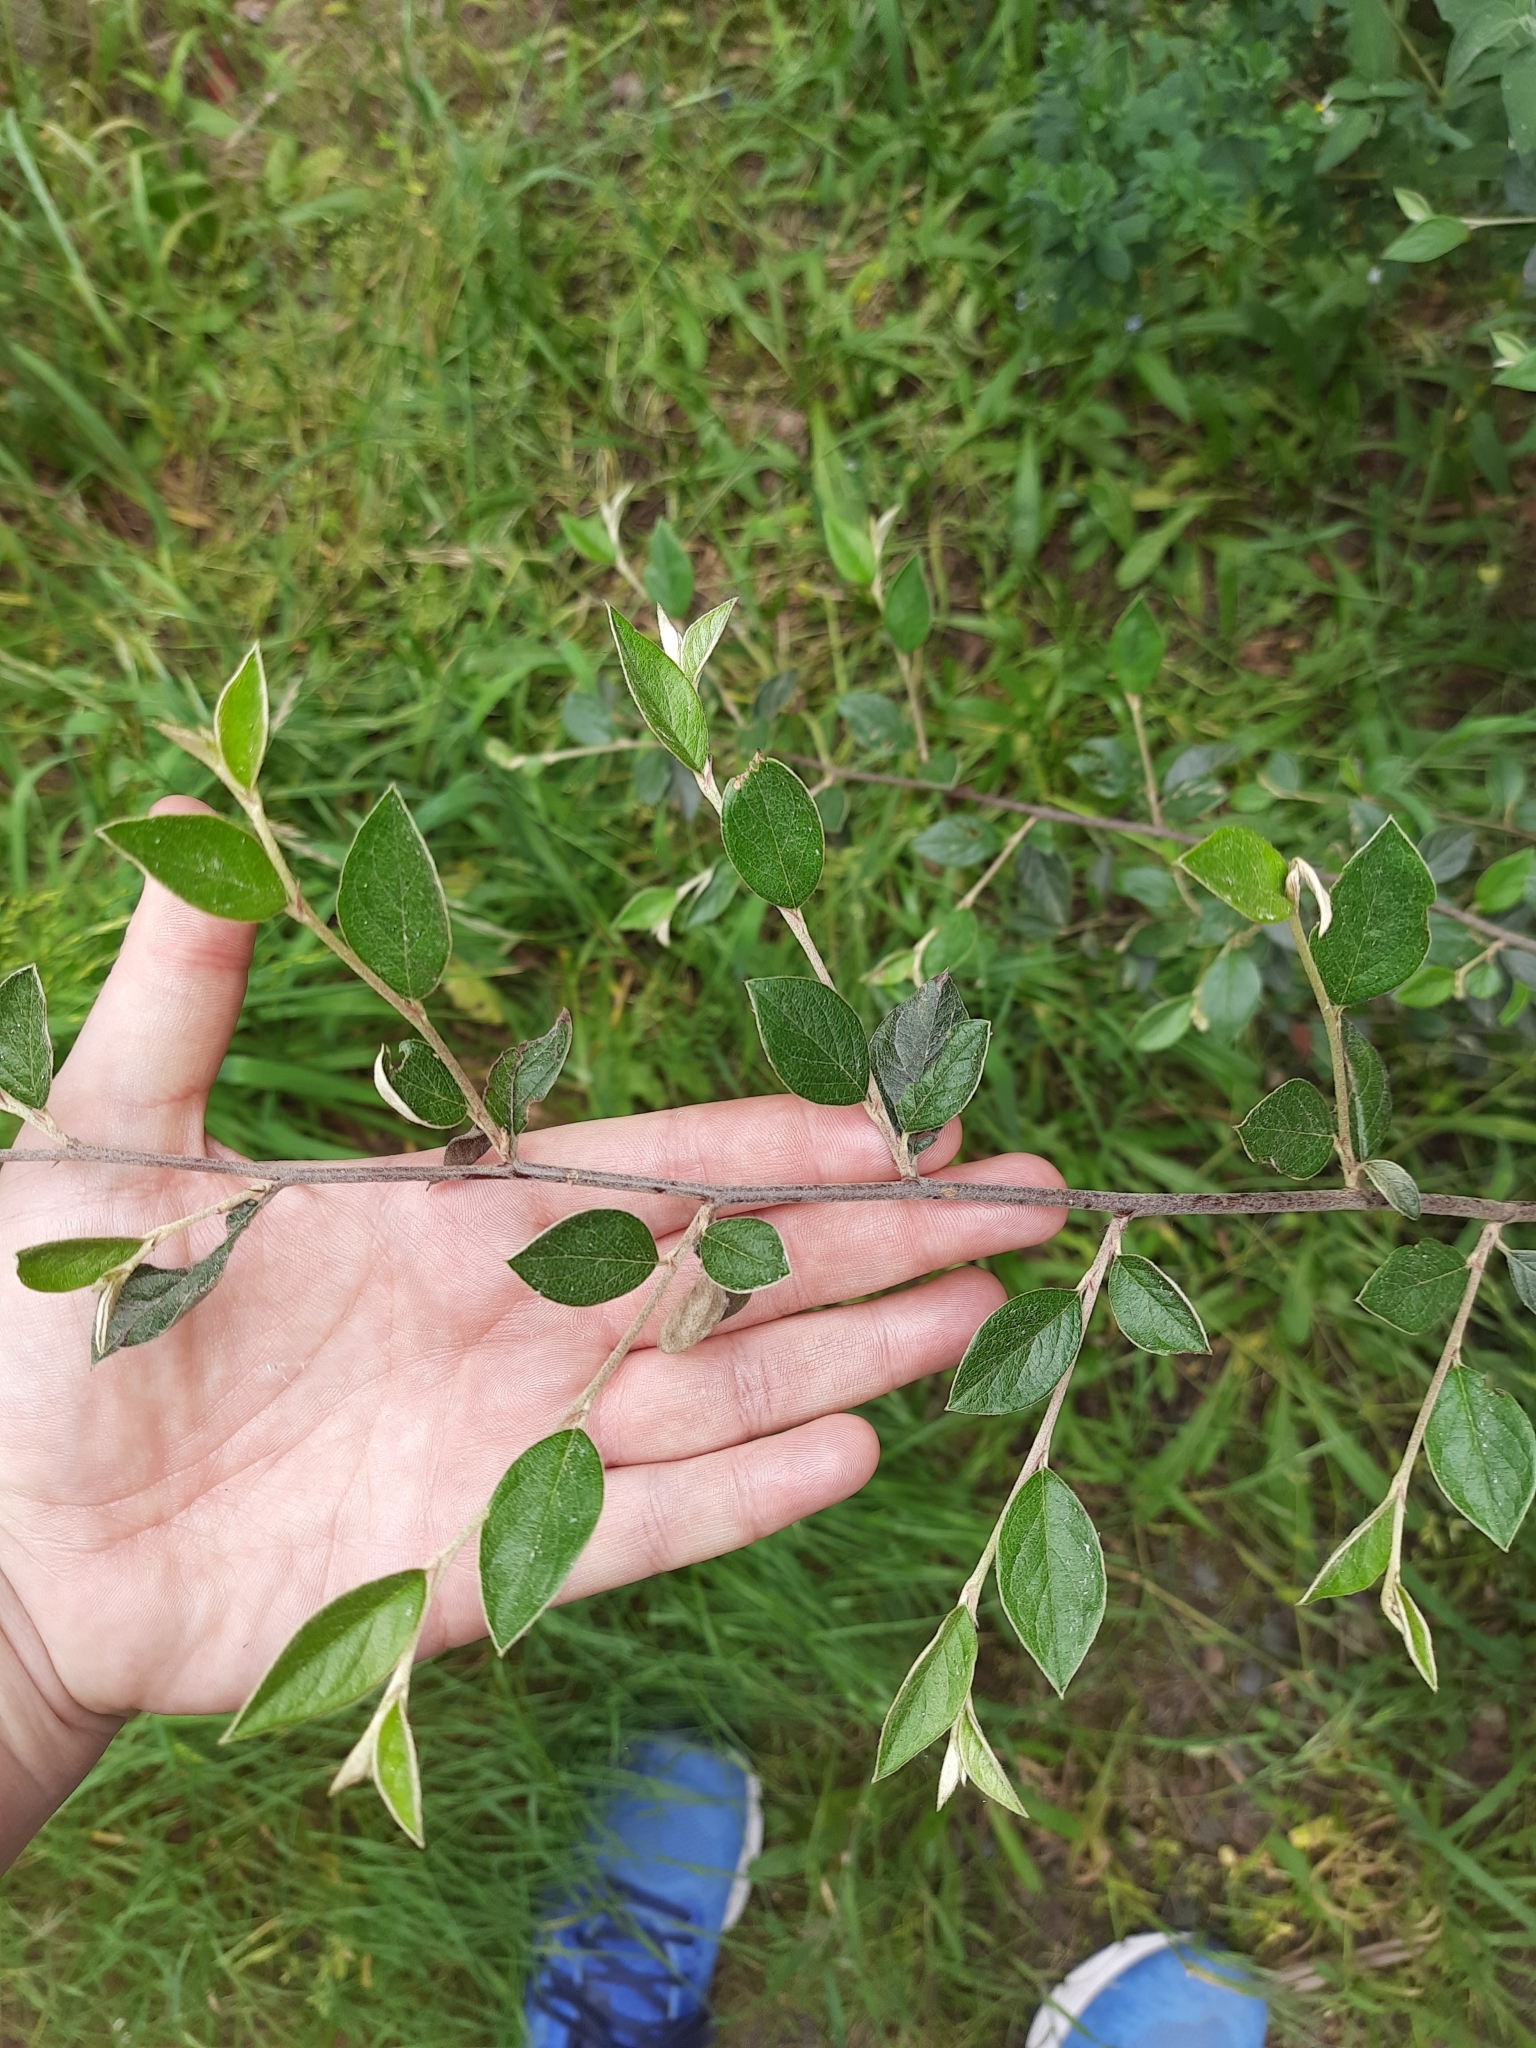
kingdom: Plantae
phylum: Tracheophyta
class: Magnoliopsida
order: Rosales
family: Rosaceae
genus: Cotoneaster
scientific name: Cotoneaster franchetii
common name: Franchet's cotoneaster
